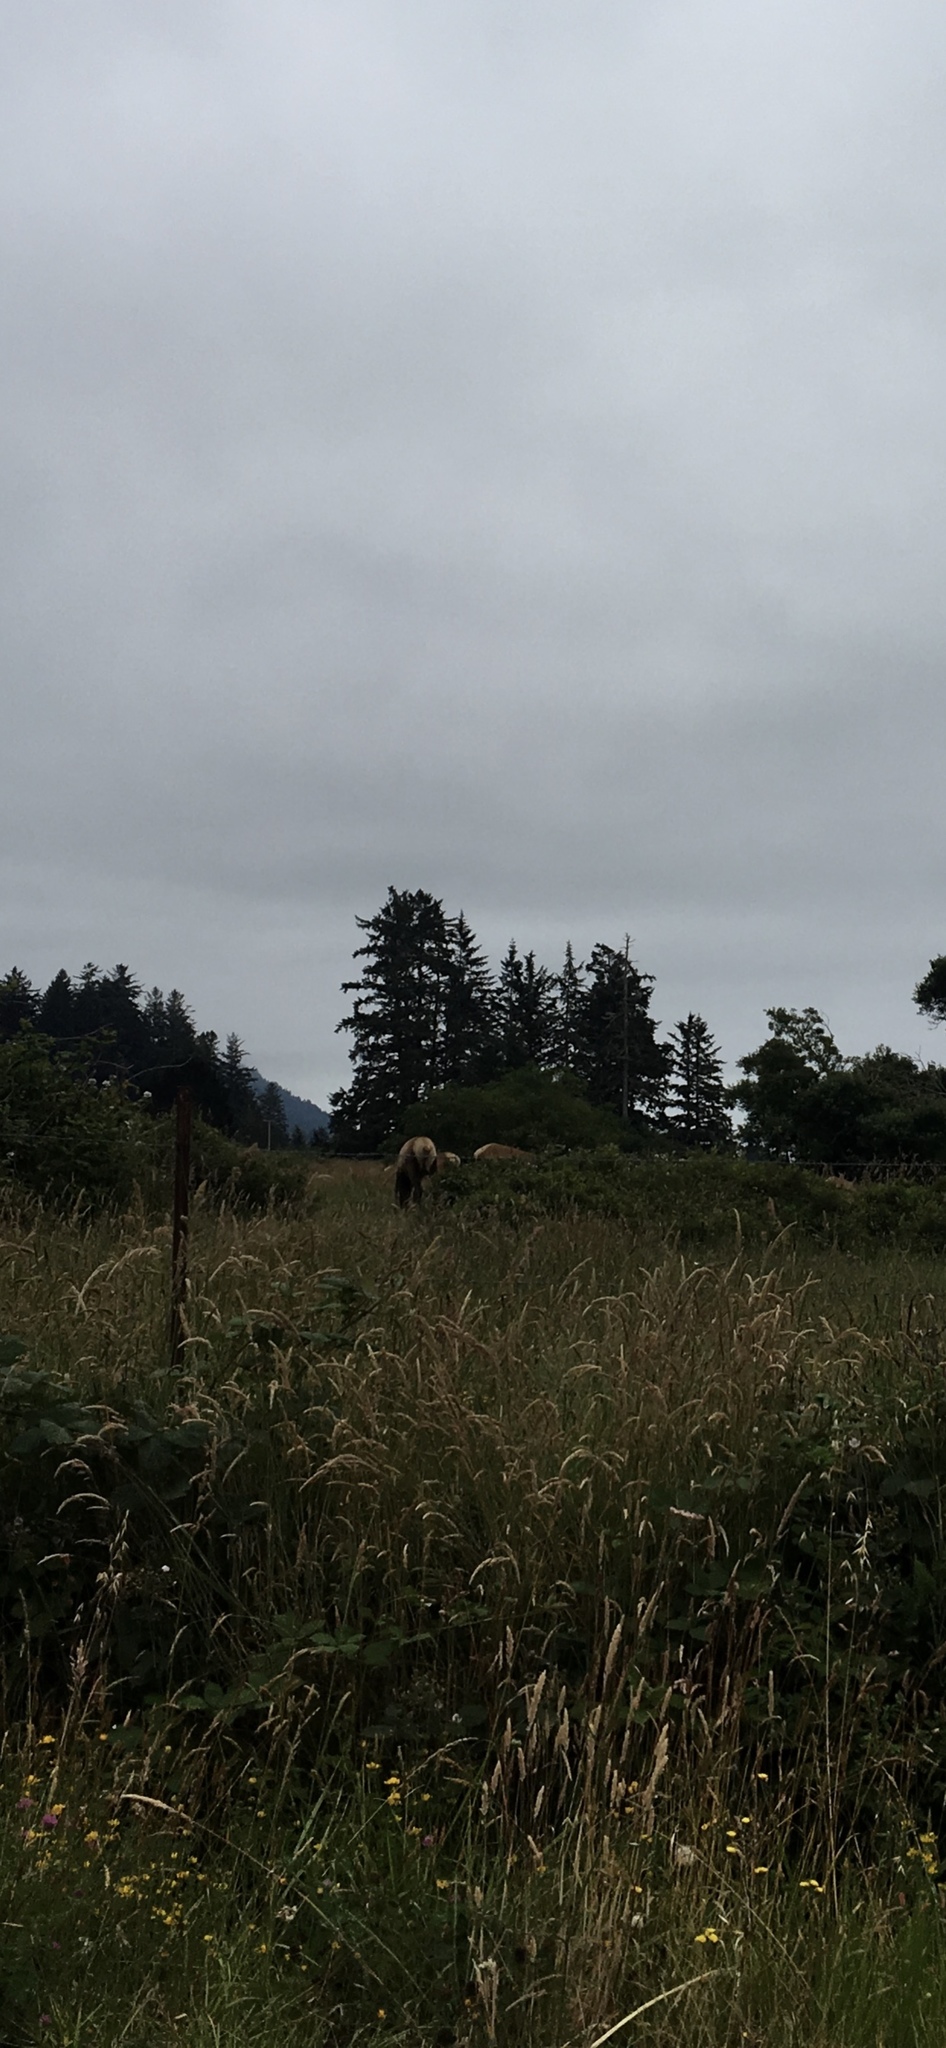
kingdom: Animalia
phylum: Chordata
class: Mammalia
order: Artiodactyla
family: Cervidae
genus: Cervus
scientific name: Cervus elaphus
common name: Red deer
